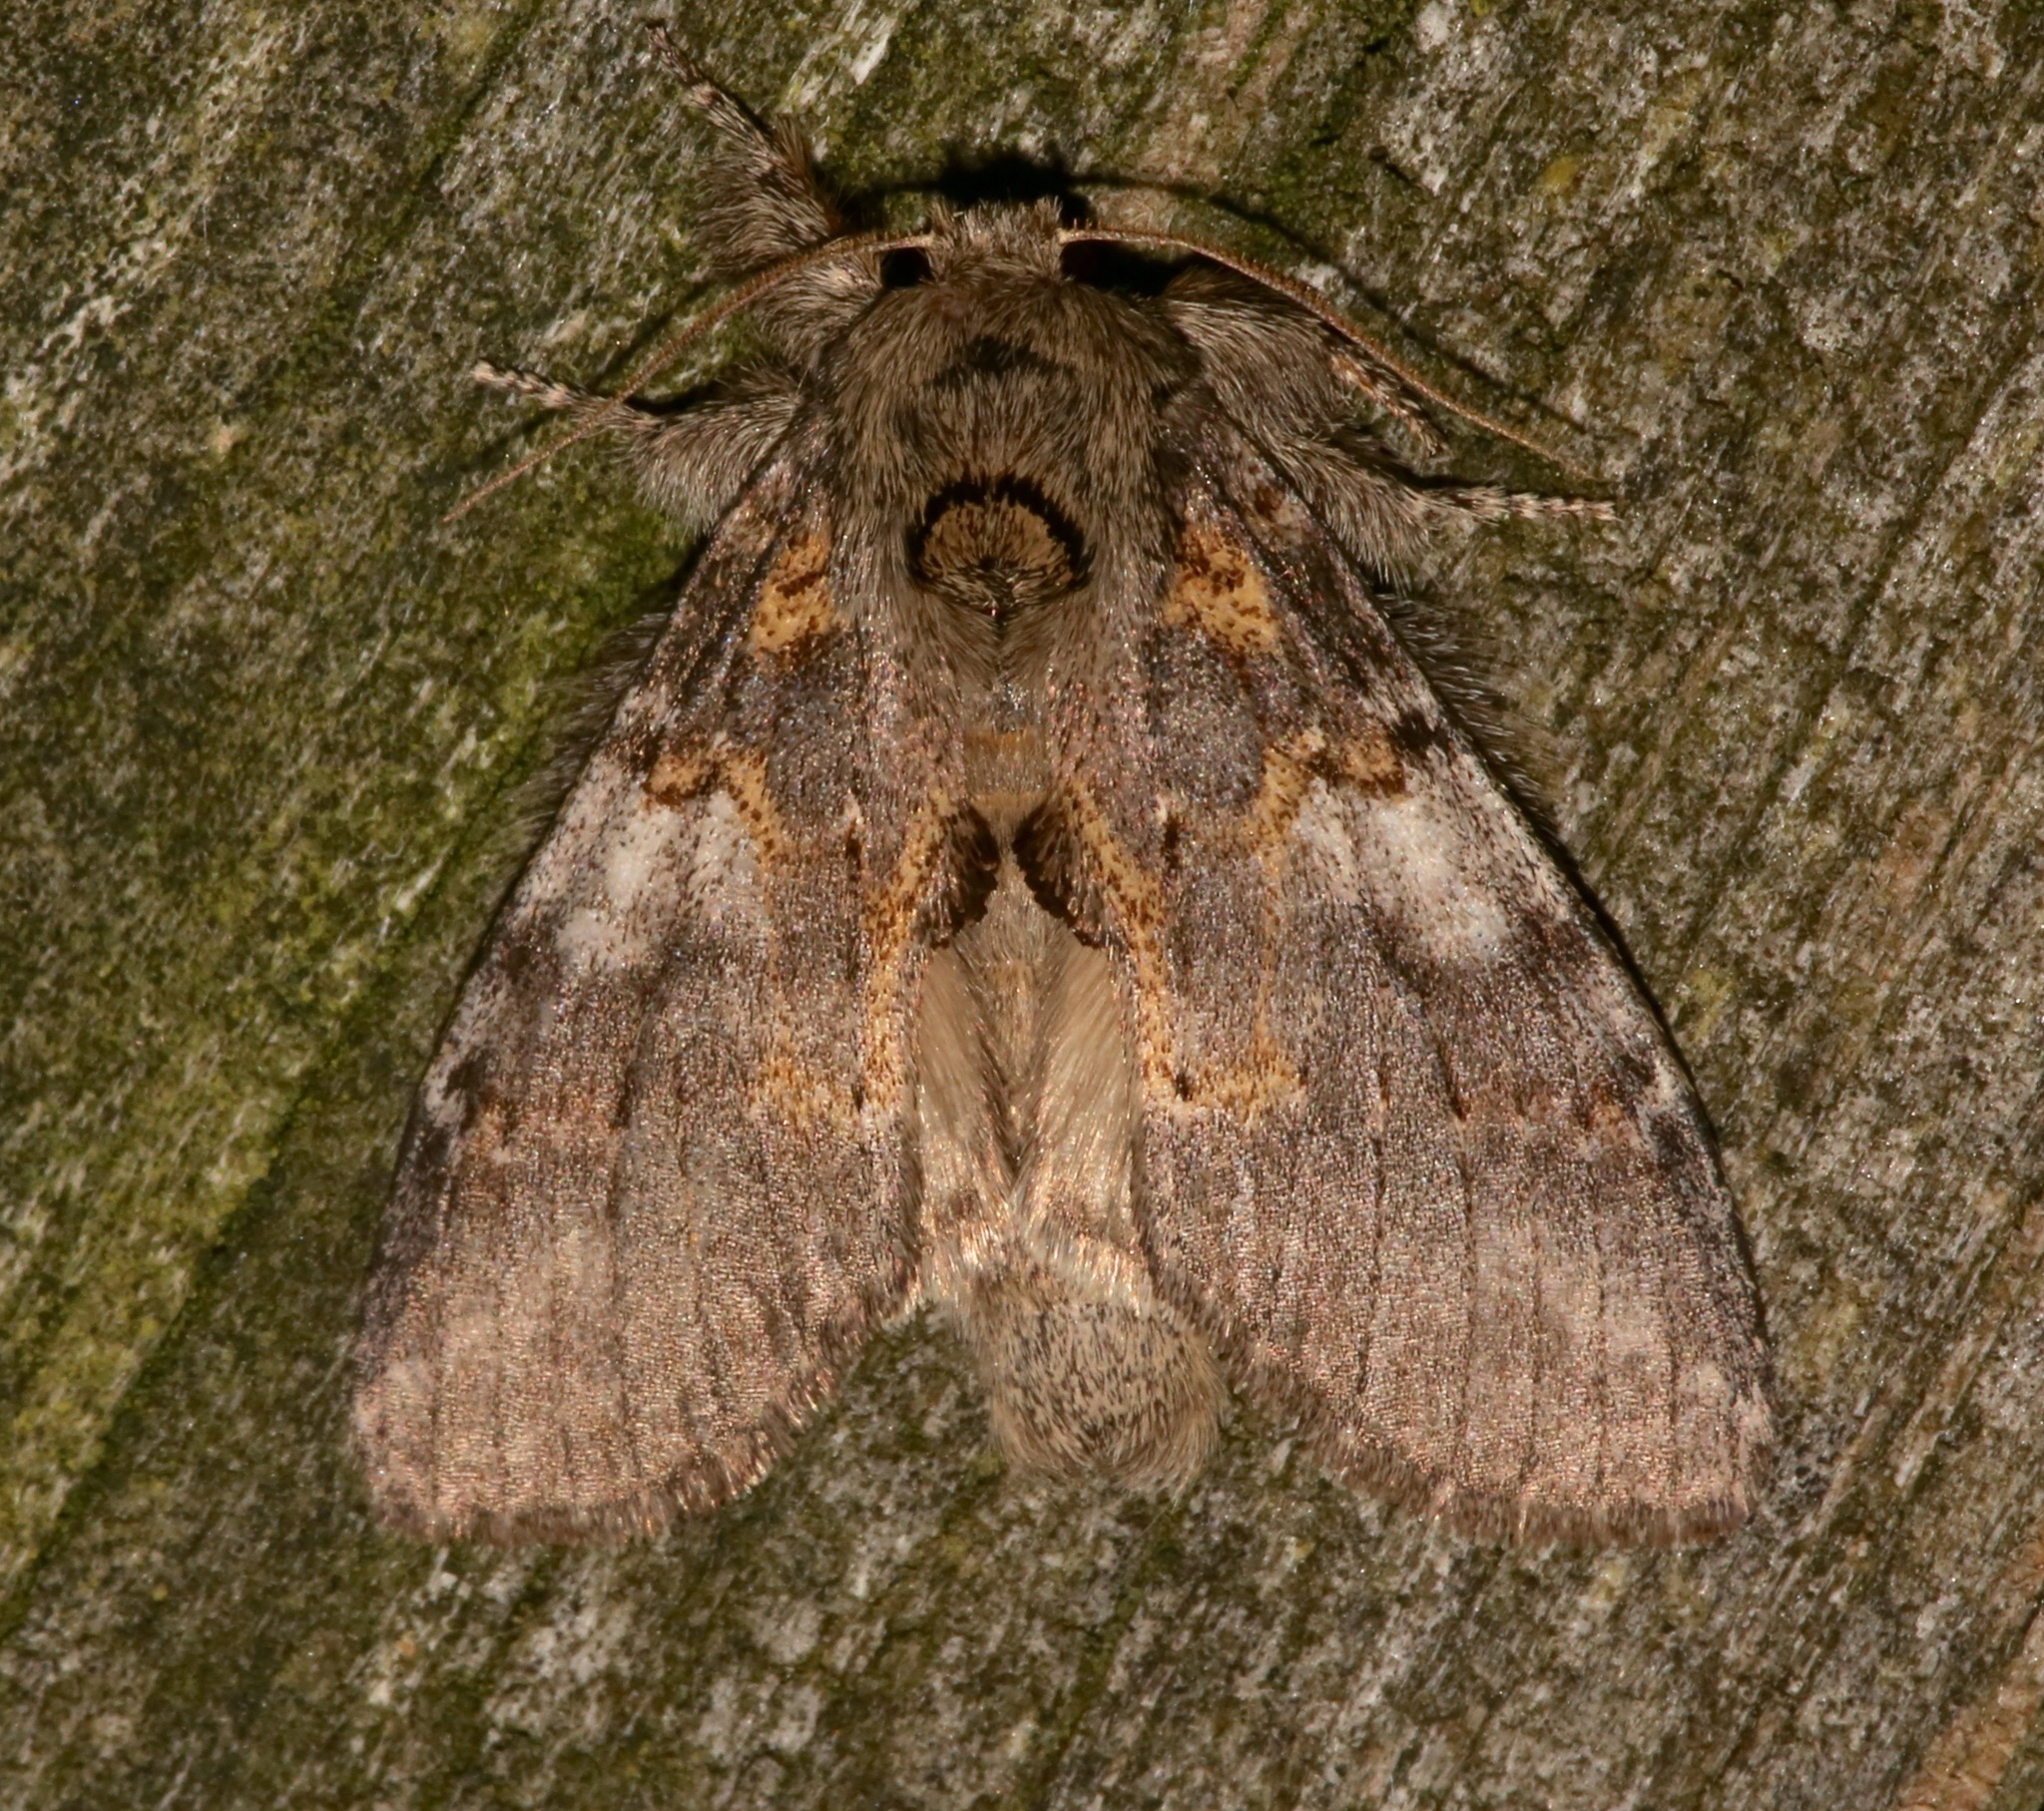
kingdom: Animalia
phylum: Arthropoda
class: Insecta
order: Lepidoptera
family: Notodontidae
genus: Peridea
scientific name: Peridea angulosa
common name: Angulose prominent
